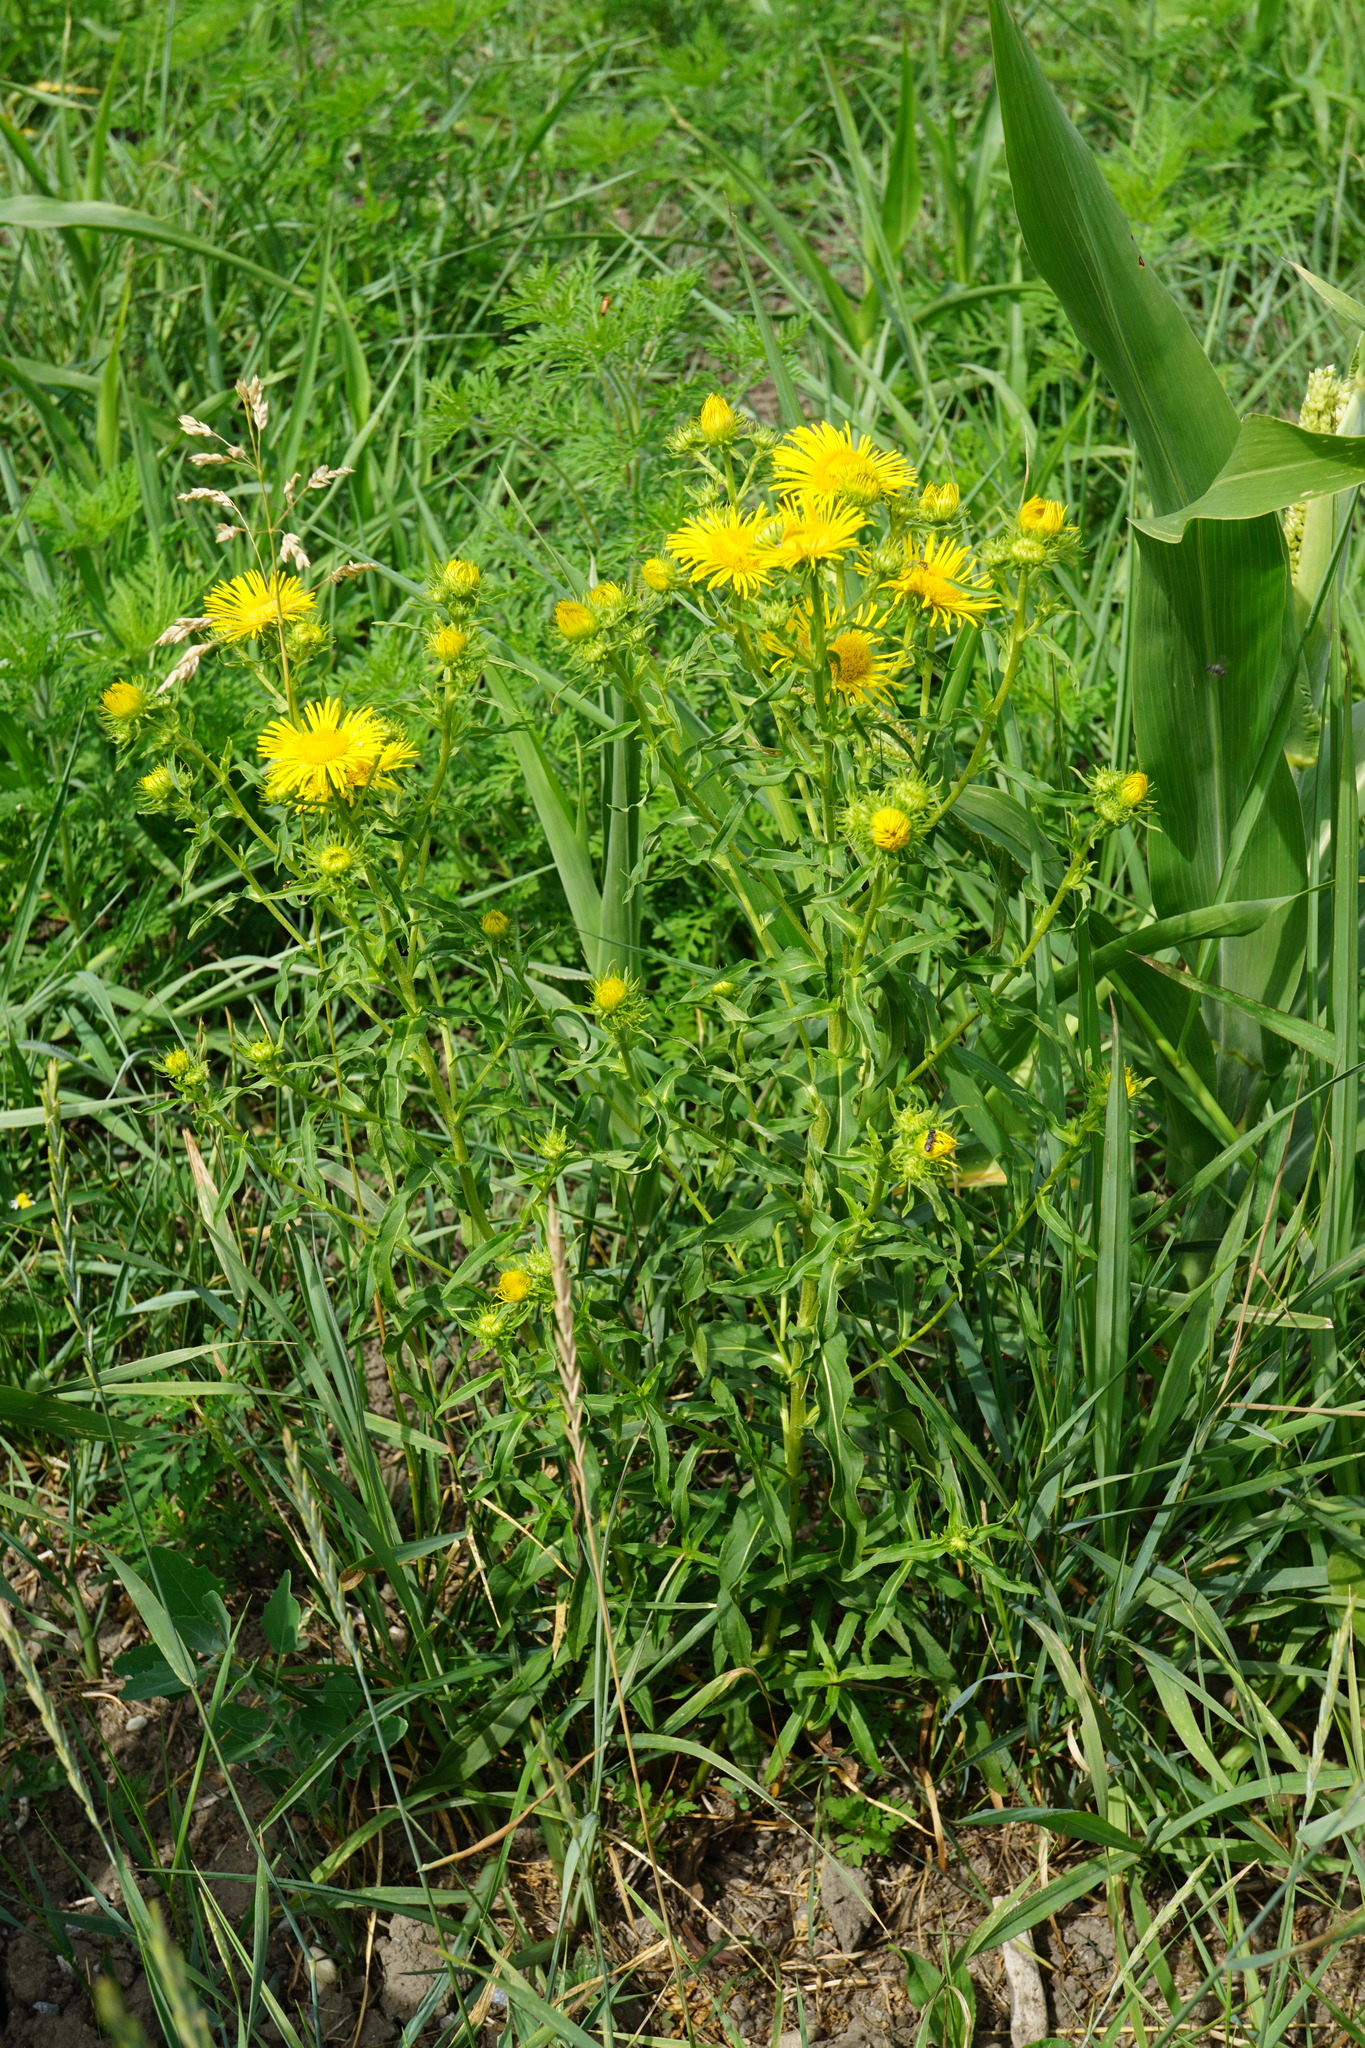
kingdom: Plantae
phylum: Tracheophyta
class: Magnoliopsida
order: Asterales
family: Asteraceae
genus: Pentanema
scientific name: Pentanema britannicum
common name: British elecampane
